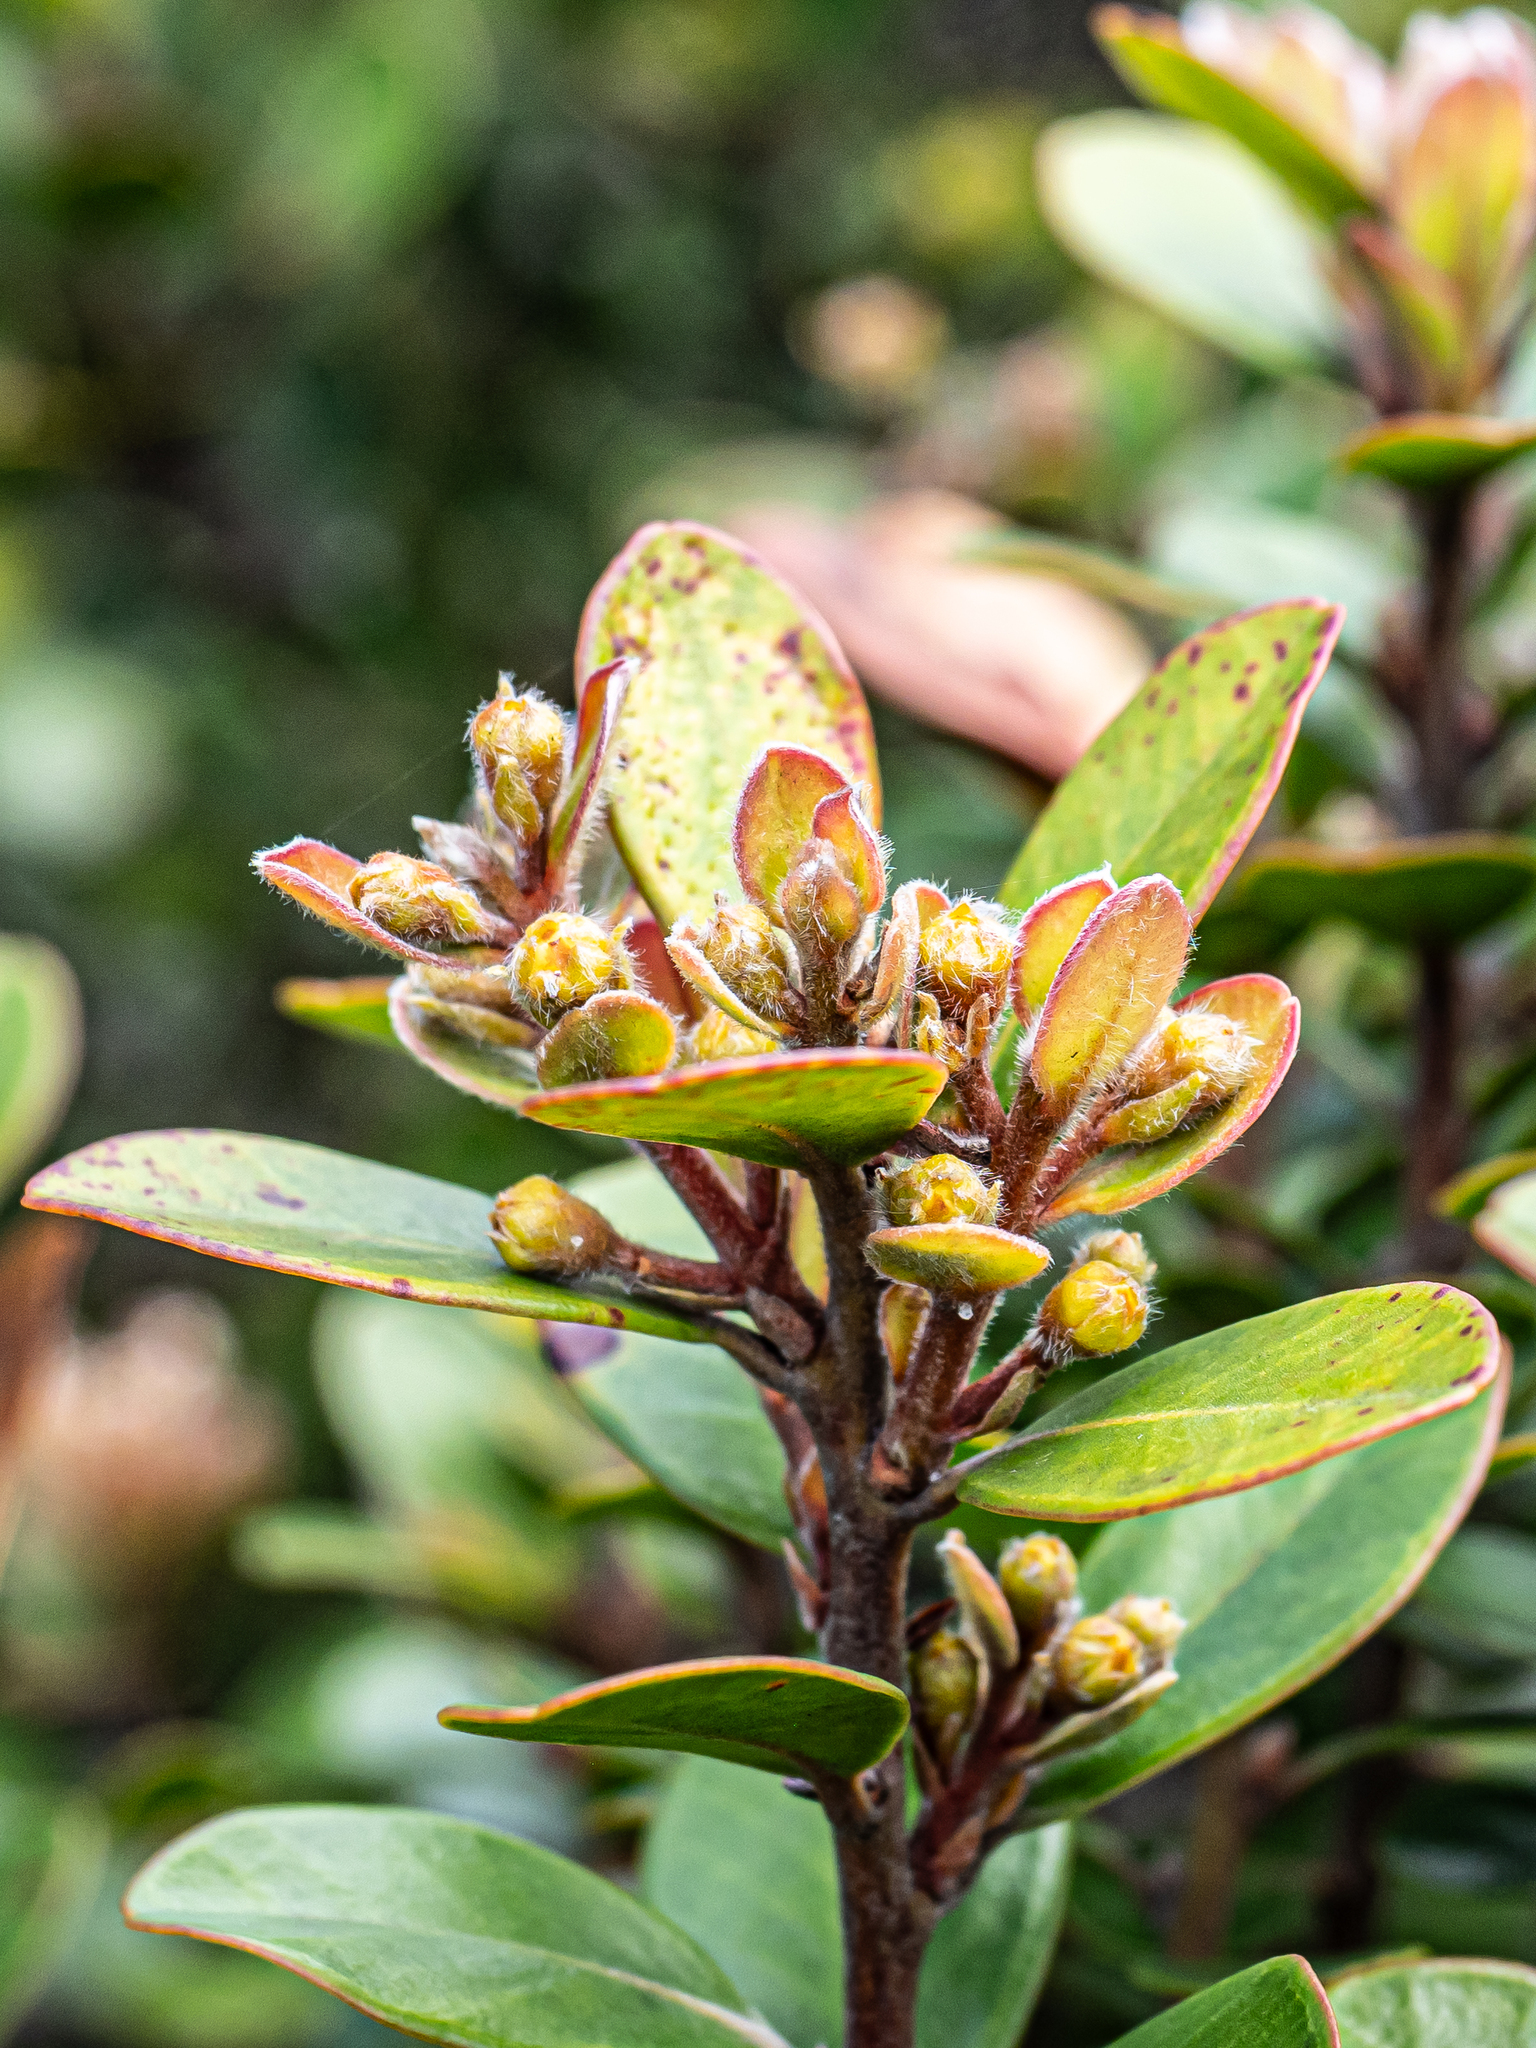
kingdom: Plantae
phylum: Tracheophyta
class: Magnoliopsida
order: Myrtales
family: Myrtaceae
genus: Tristaniopsis
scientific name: Tristaniopsis calobuxus
